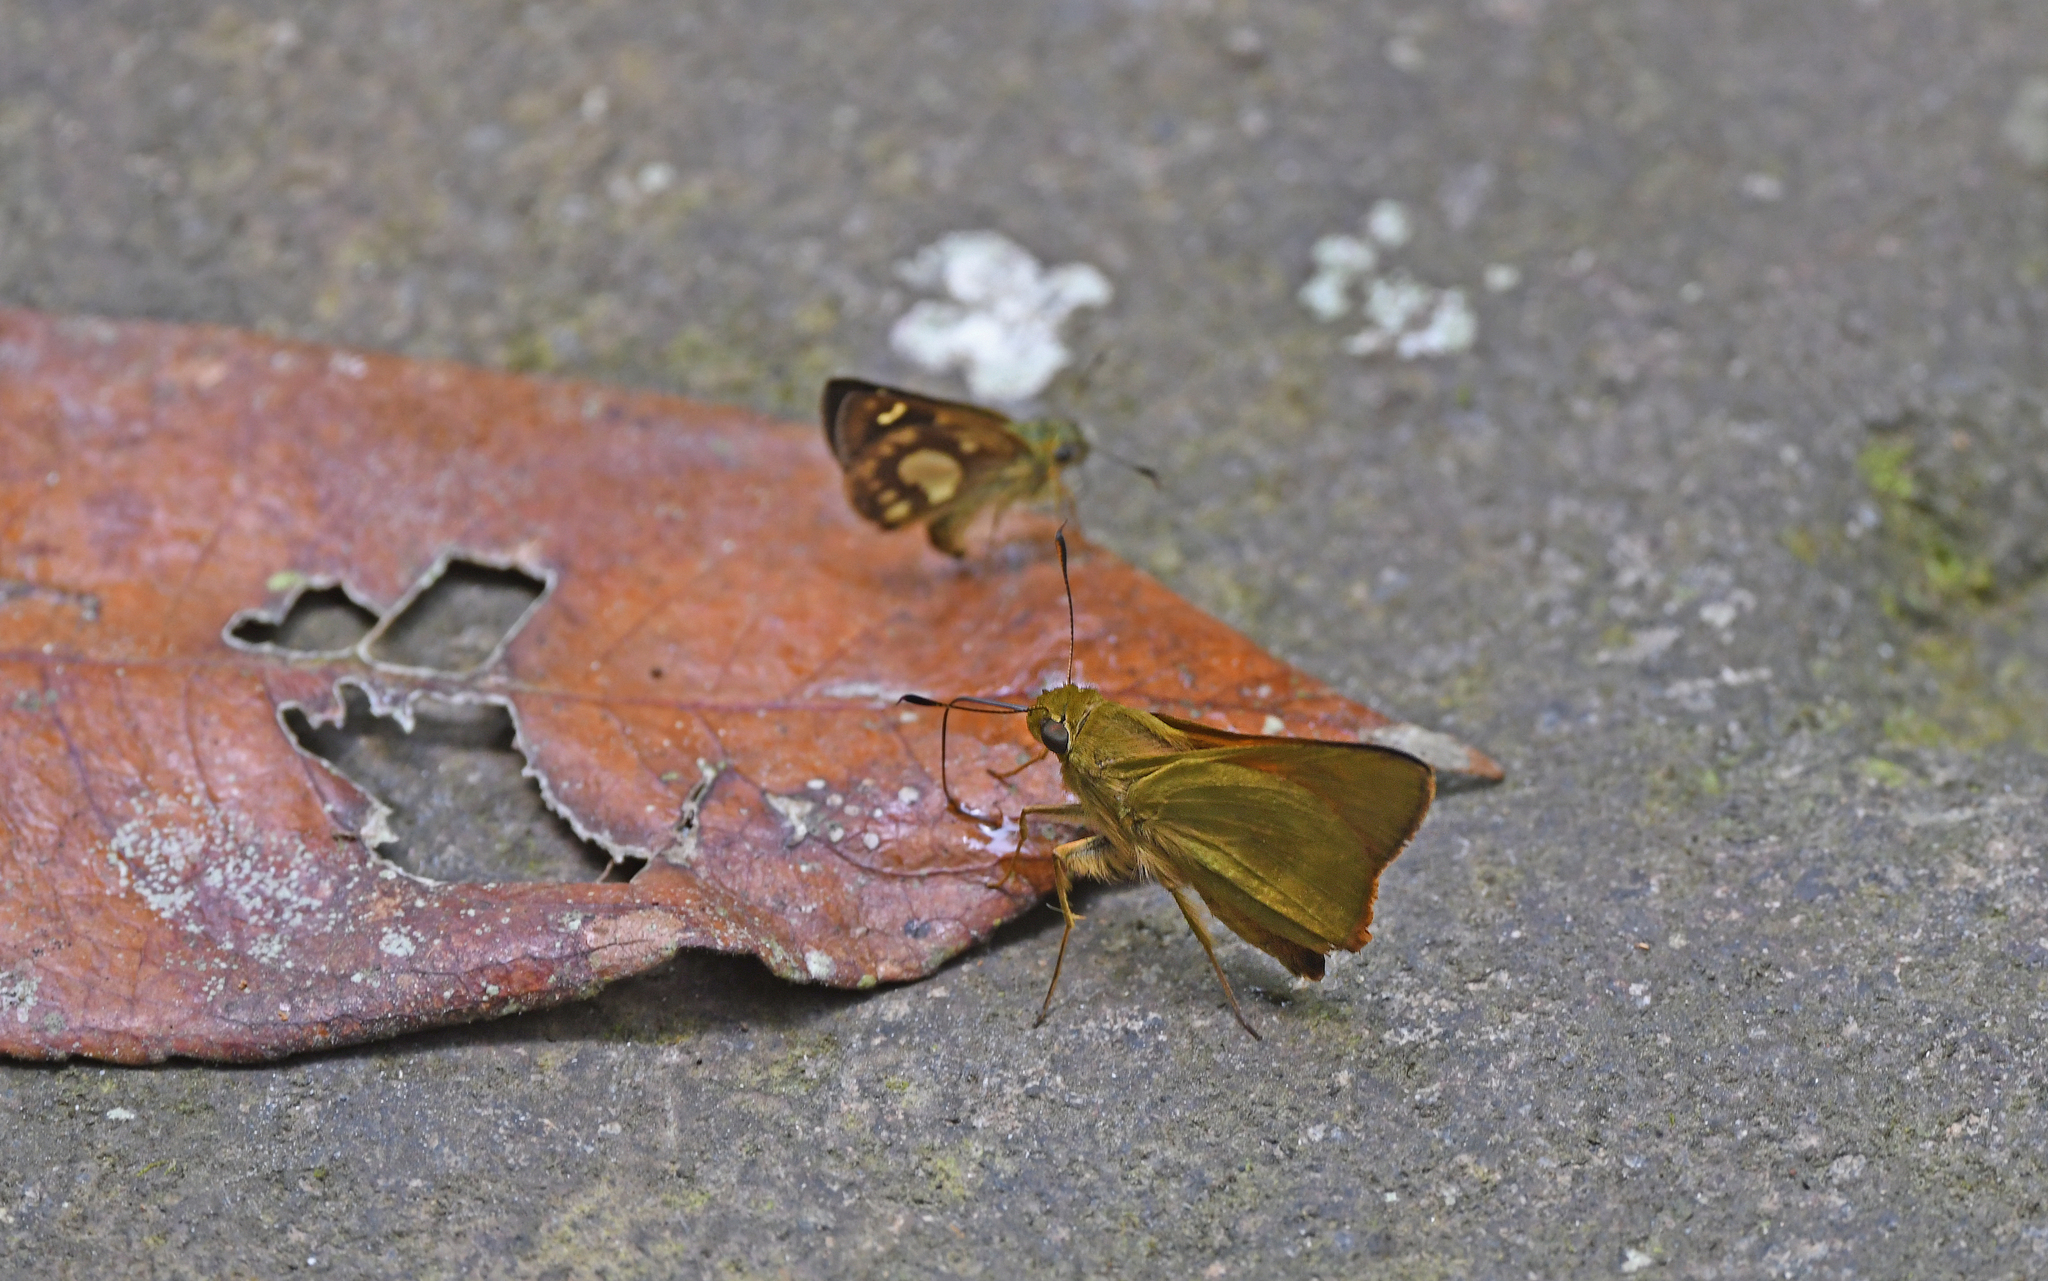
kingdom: Animalia
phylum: Arthropoda
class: Insecta
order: Lepidoptera
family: Hesperiidae
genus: Serdis
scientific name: Serdis statius
